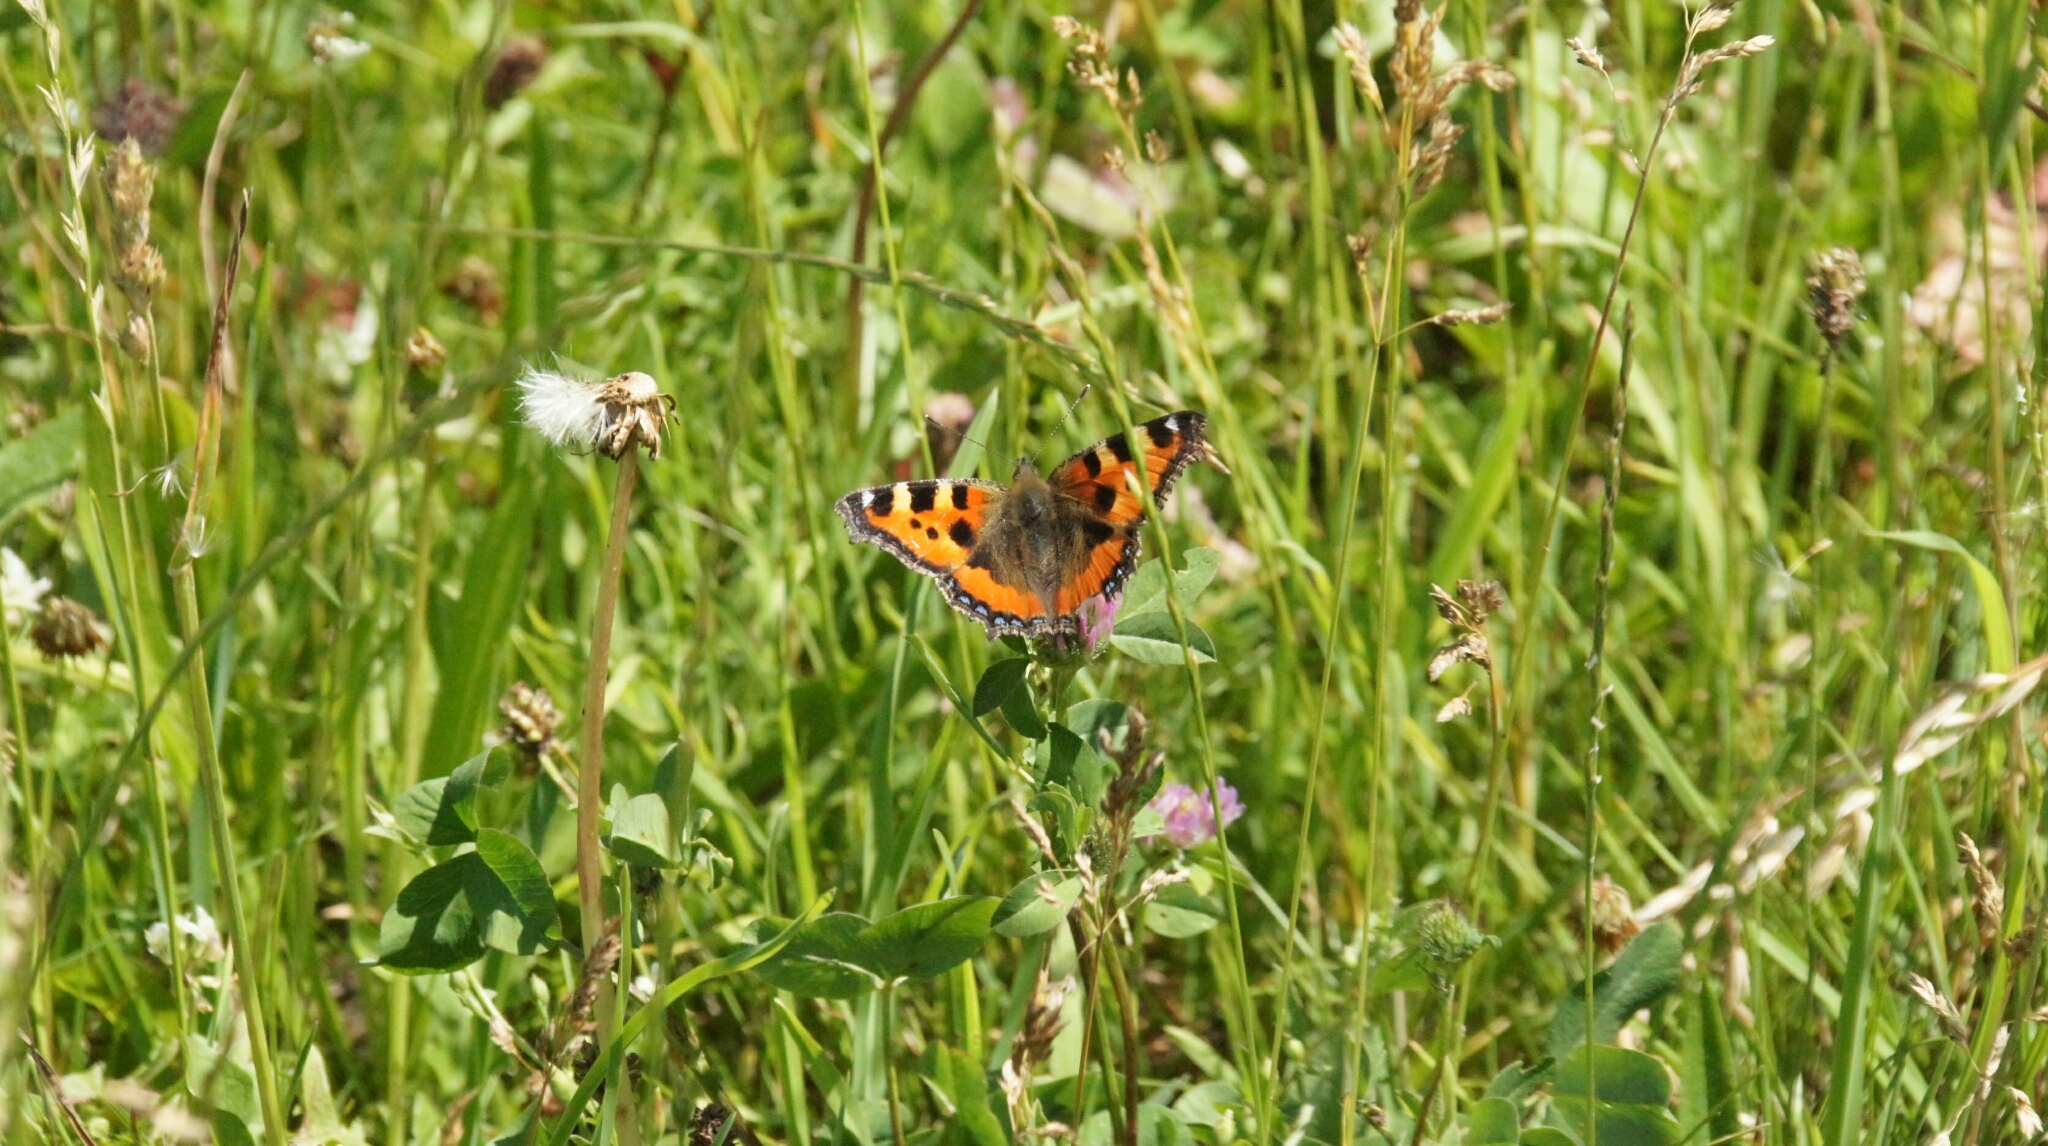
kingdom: Animalia
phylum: Arthropoda
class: Insecta
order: Lepidoptera
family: Nymphalidae
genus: Aglais
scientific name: Aglais urticae
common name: Small tortoiseshell
